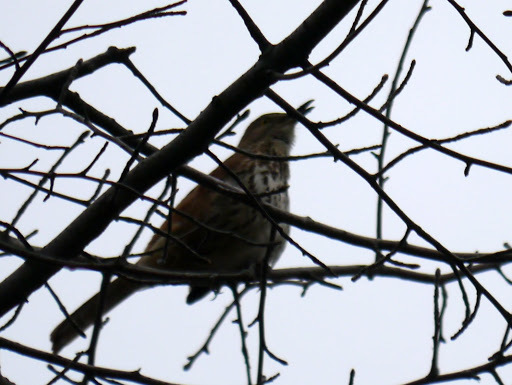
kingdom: Animalia
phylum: Chordata
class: Aves
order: Passeriformes
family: Mimidae
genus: Toxostoma
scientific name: Toxostoma rufum
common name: Brown thrasher
